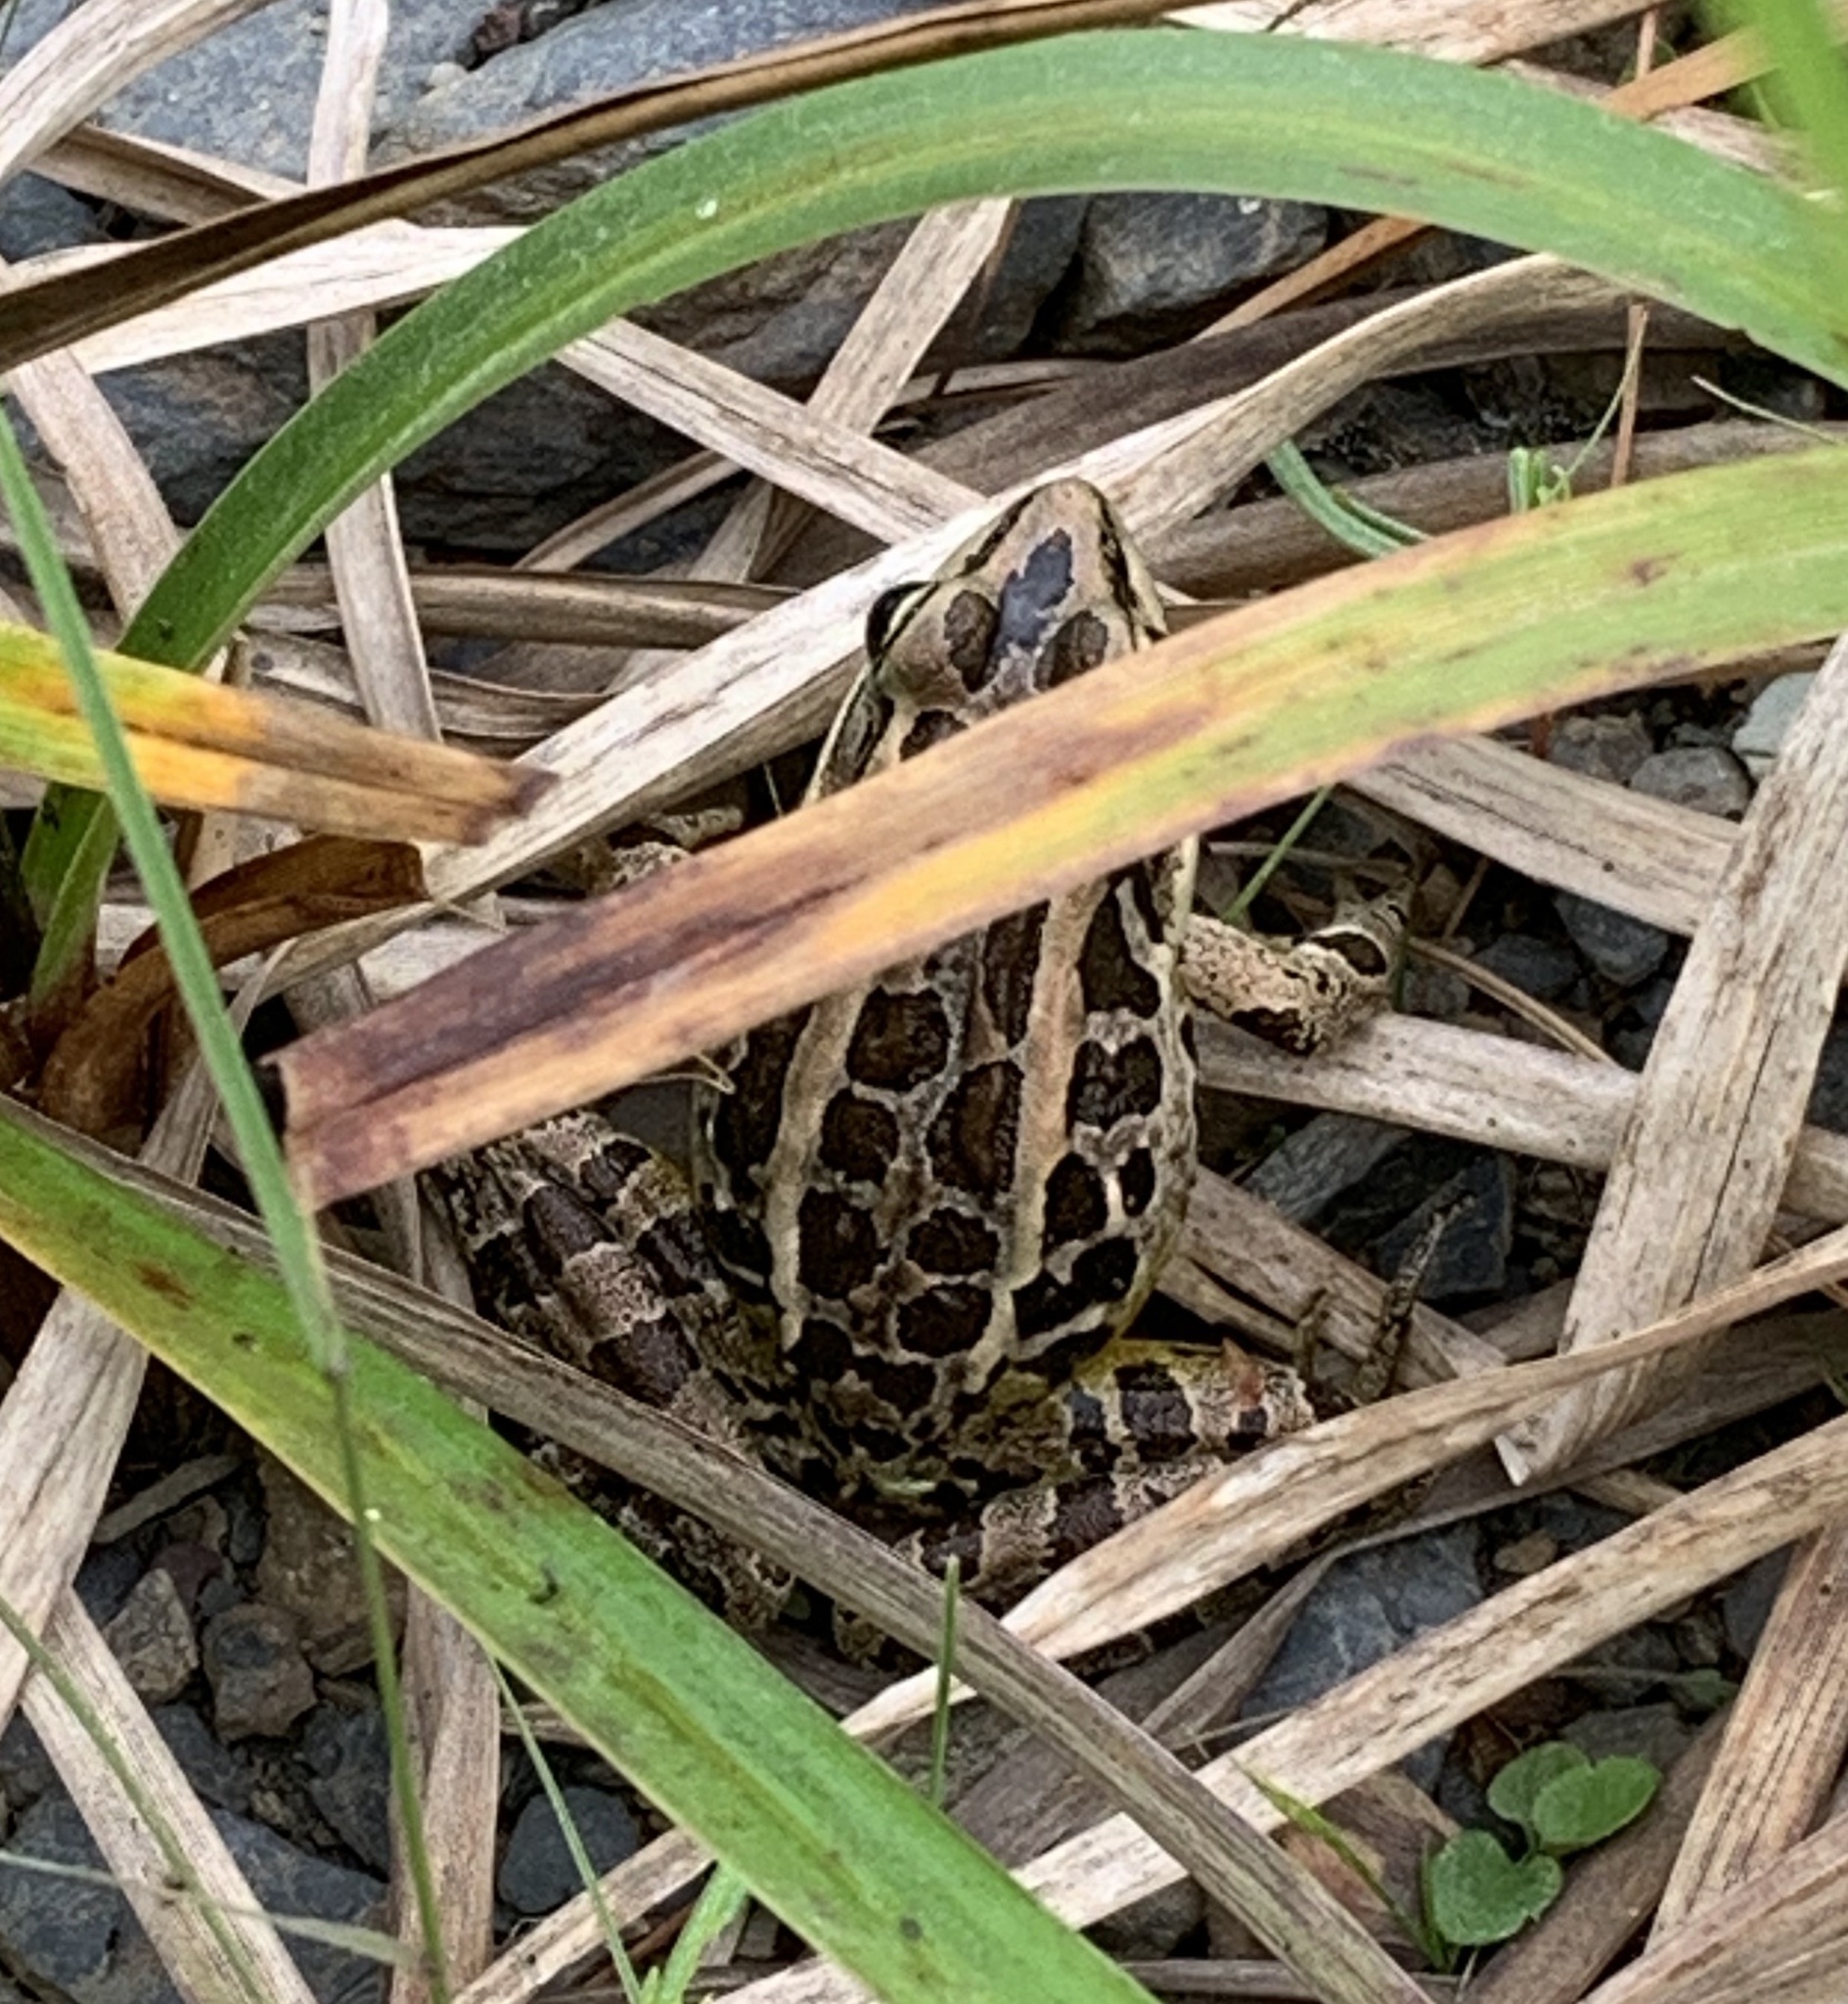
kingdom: Animalia
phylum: Chordata
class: Amphibia
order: Anura
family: Ranidae
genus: Lithobates
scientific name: Lithobates palustris
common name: Pickerel frog
